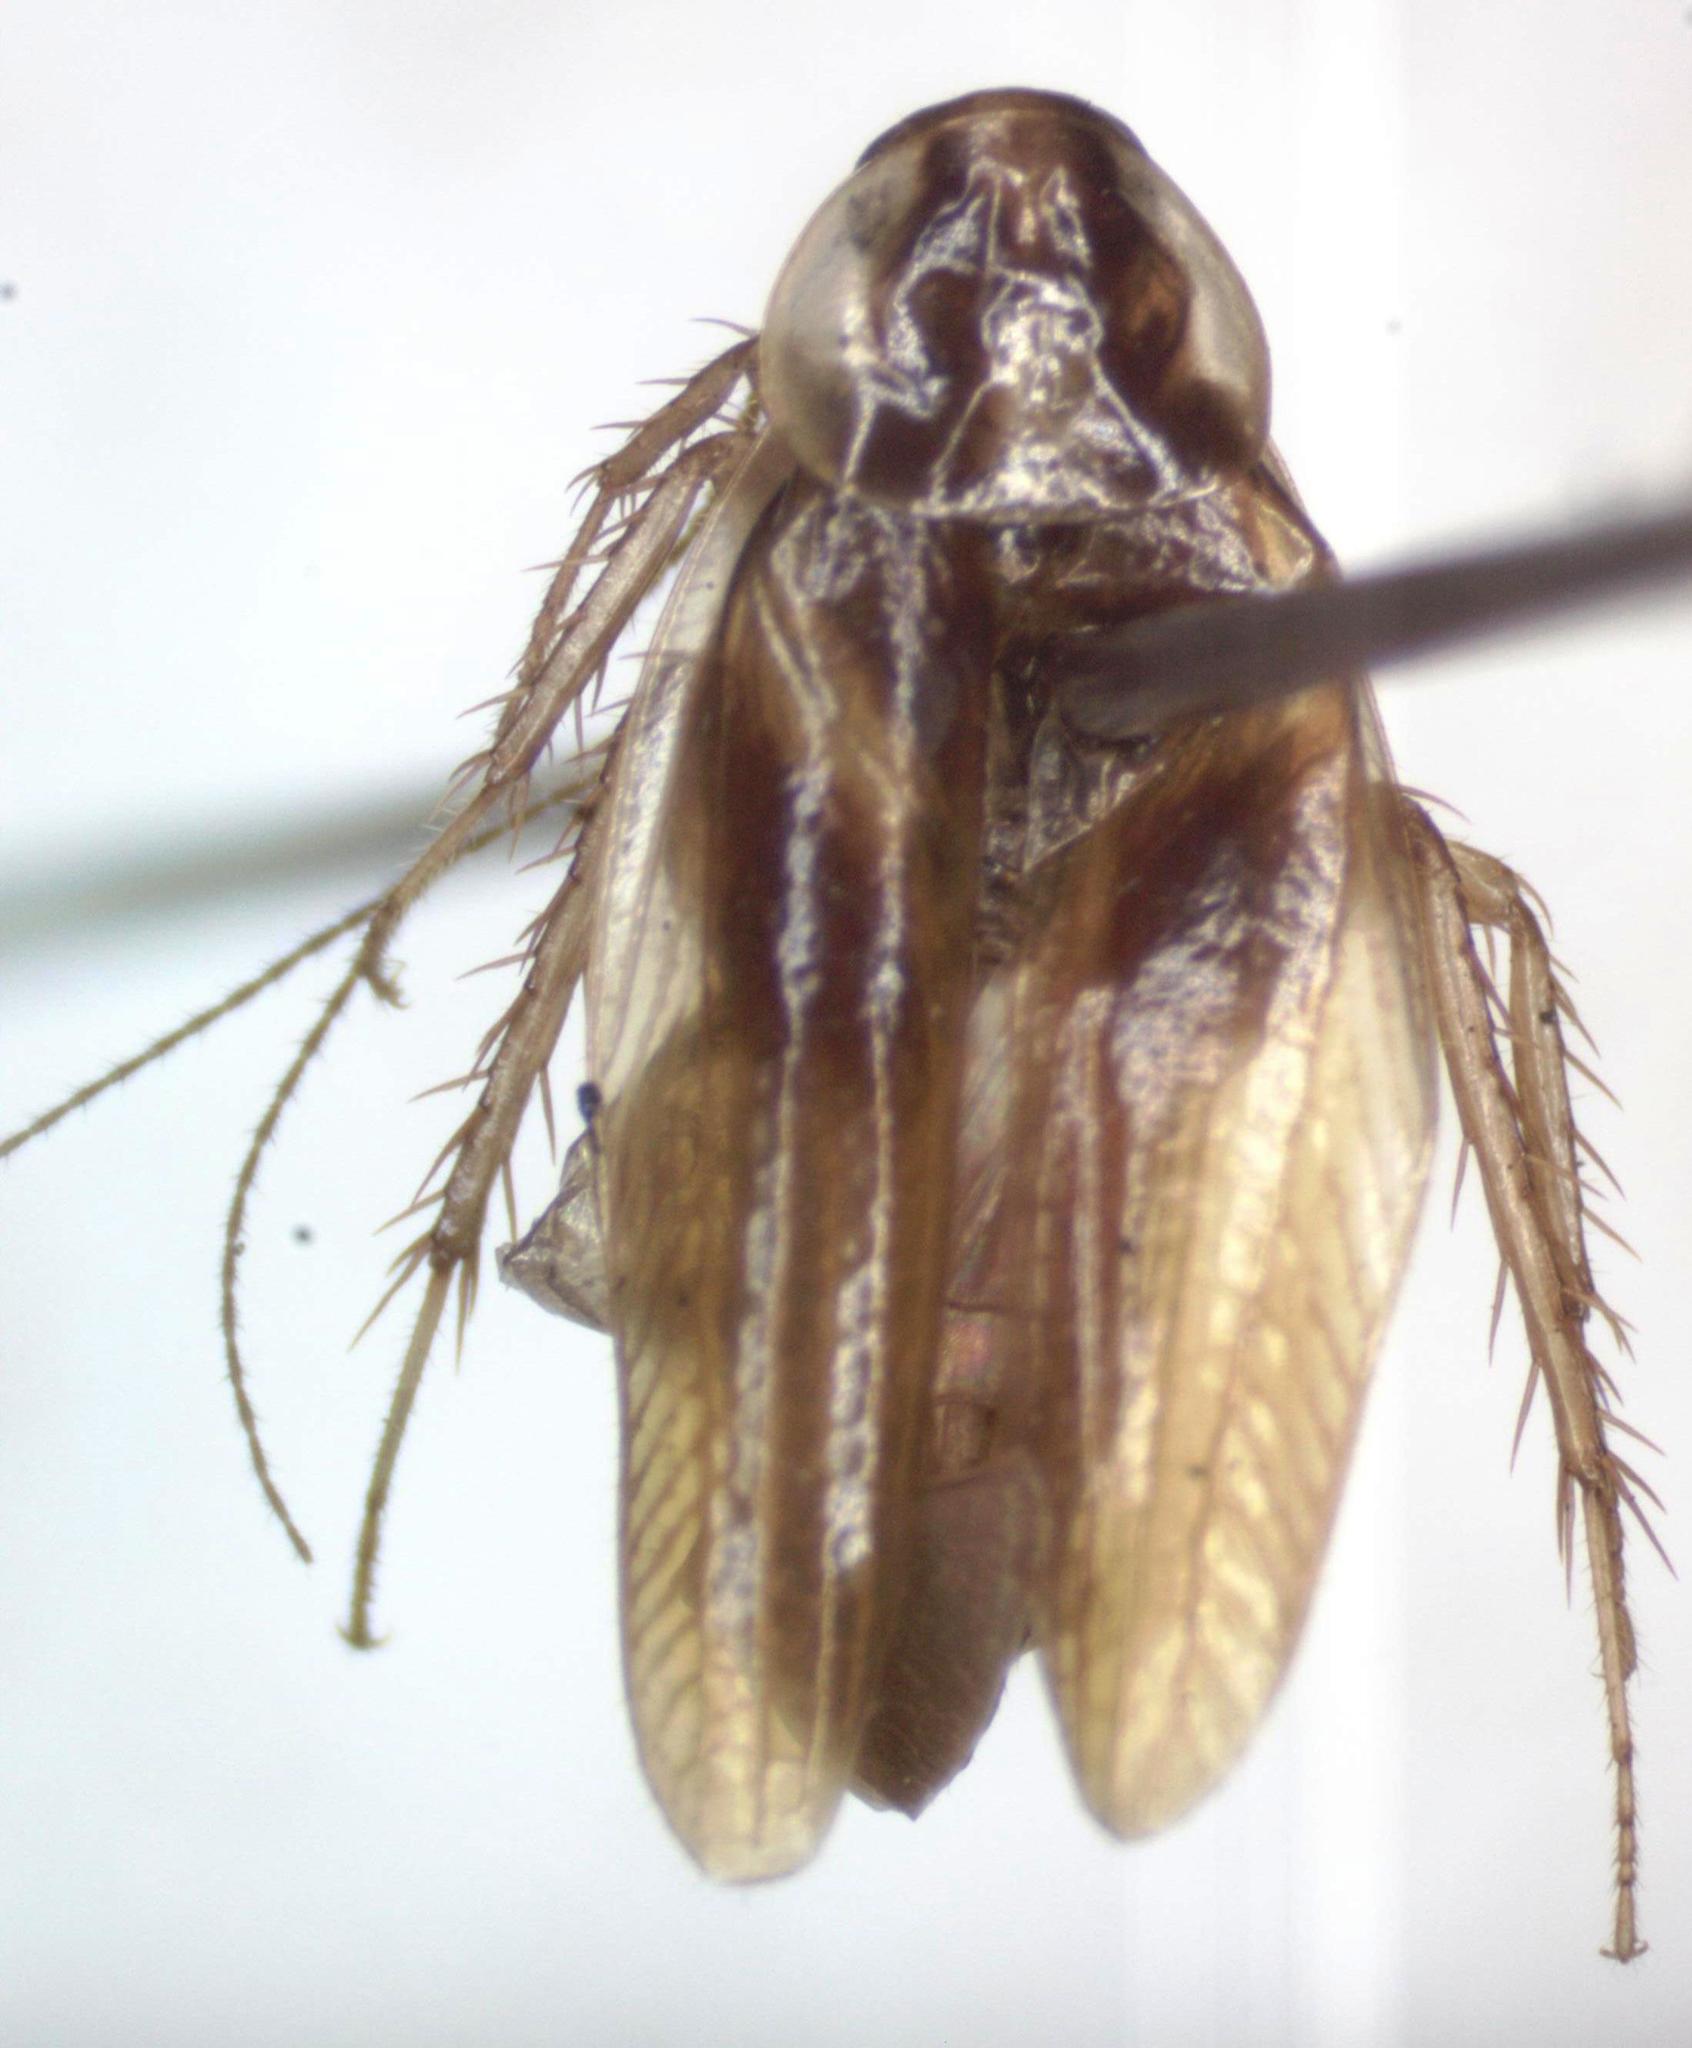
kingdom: Animalia
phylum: Arthropoda
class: Insecta
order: Blattodea
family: Anaplectidae
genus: Anaplecta
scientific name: Anaplecta hemiscotia
